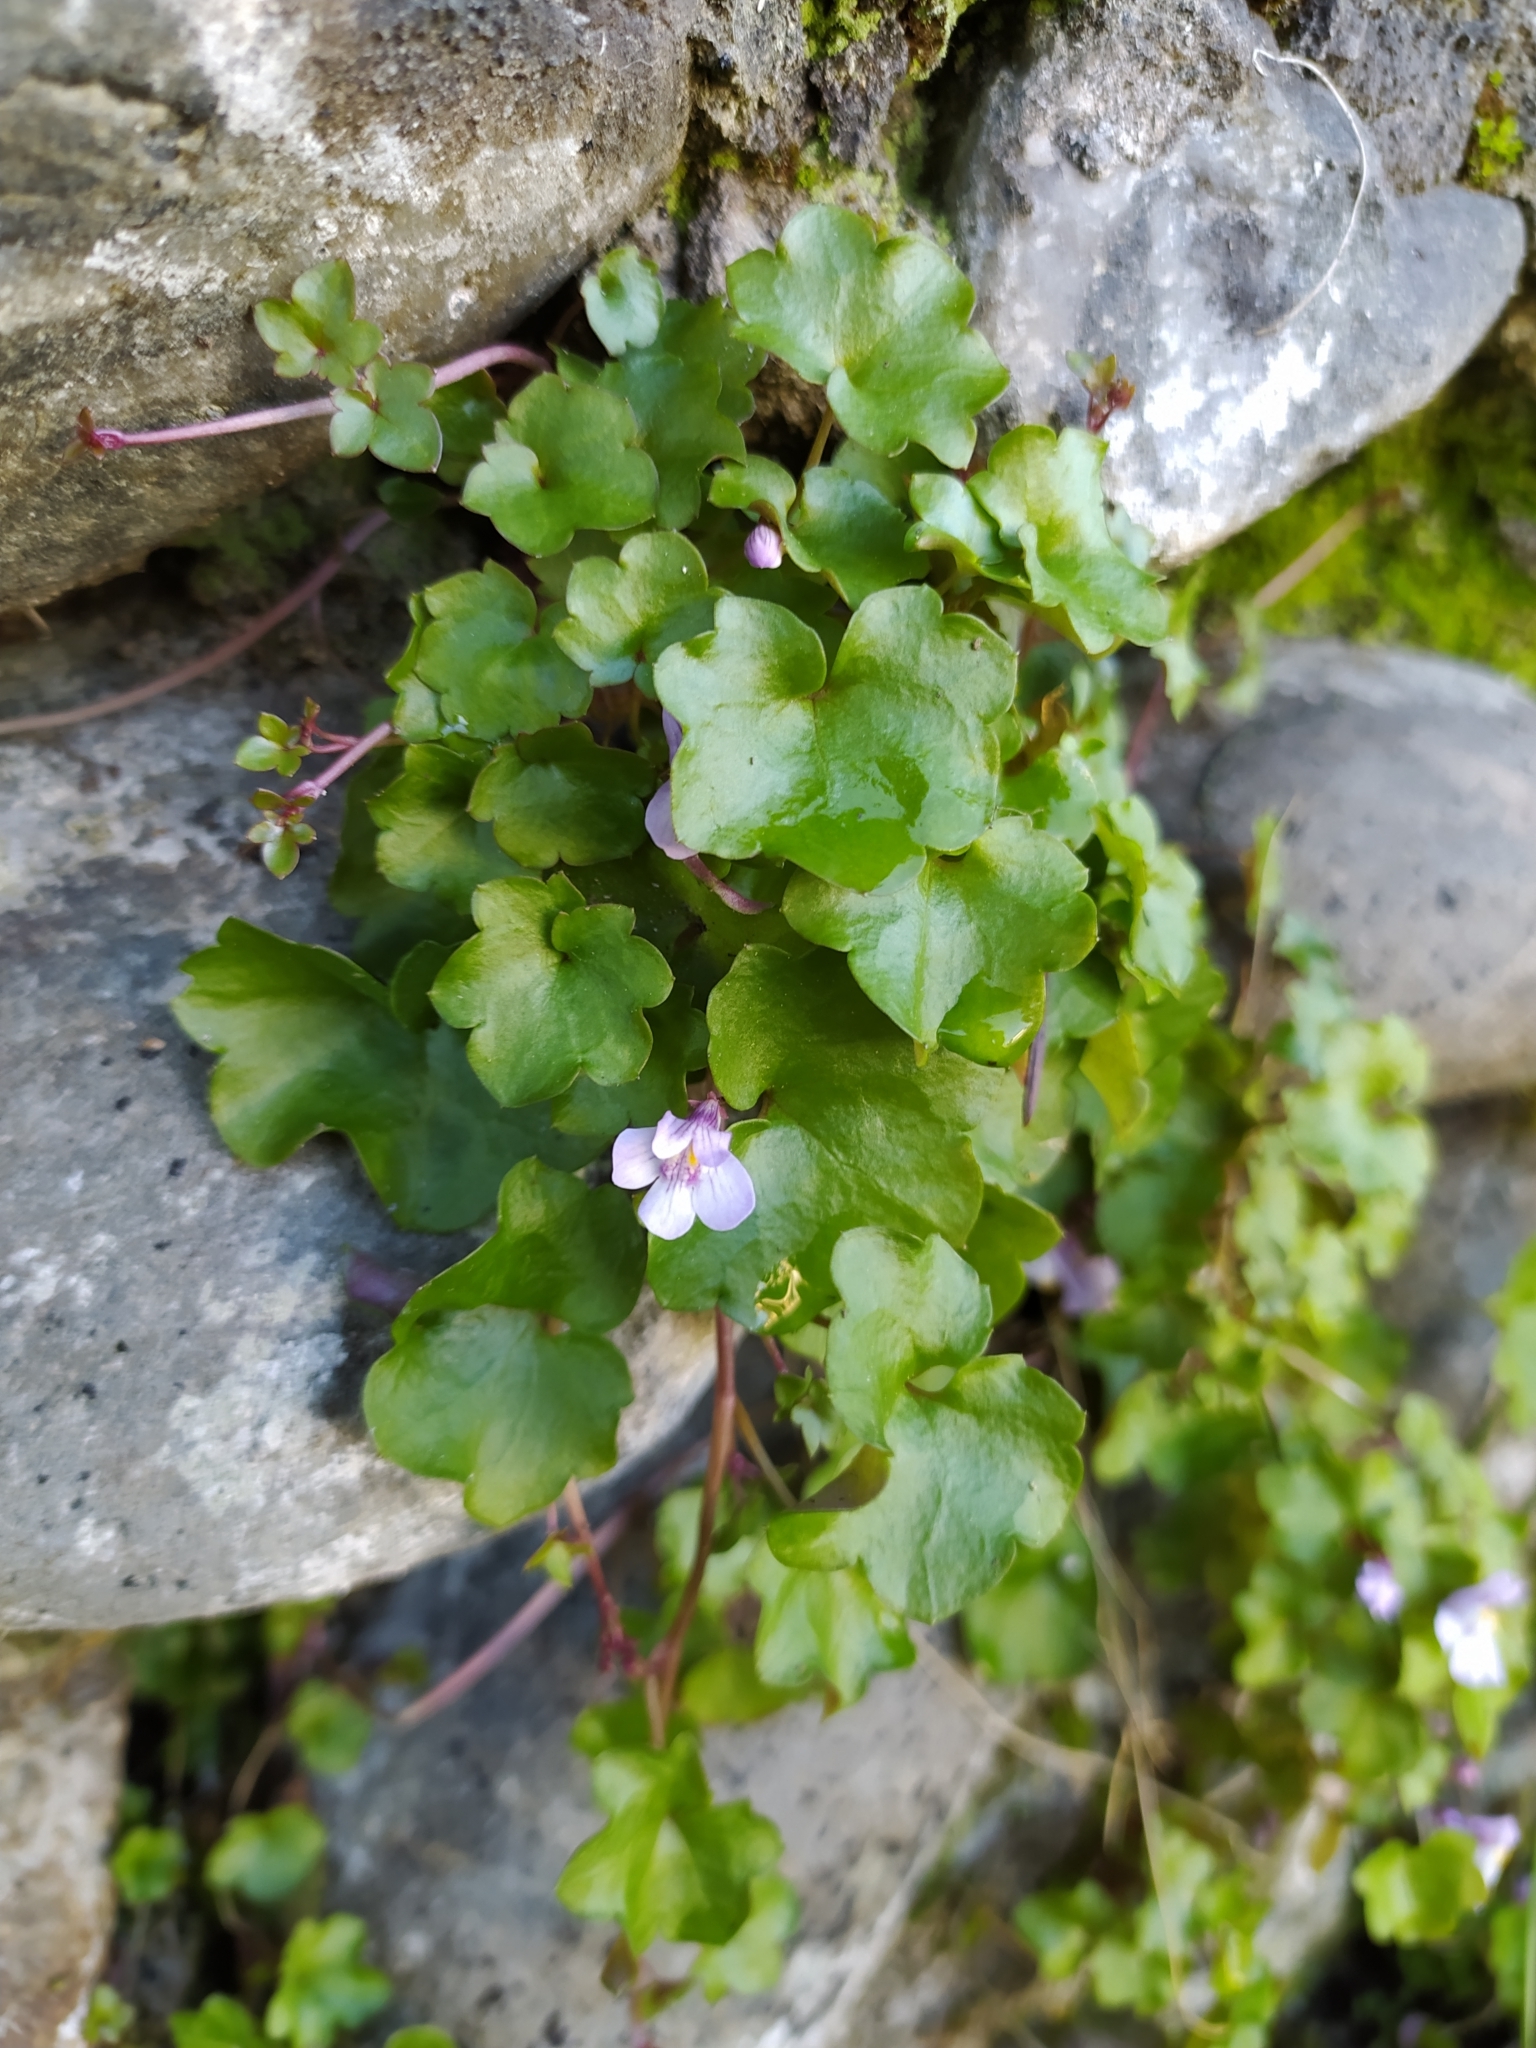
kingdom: Plantae
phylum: Tracheophyta
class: Magnoliopsida
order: Lamiales
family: Plantaginaceae
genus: Cymbalaria
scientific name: Cymbalaria muralis
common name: Ivy-leaved toadflax
